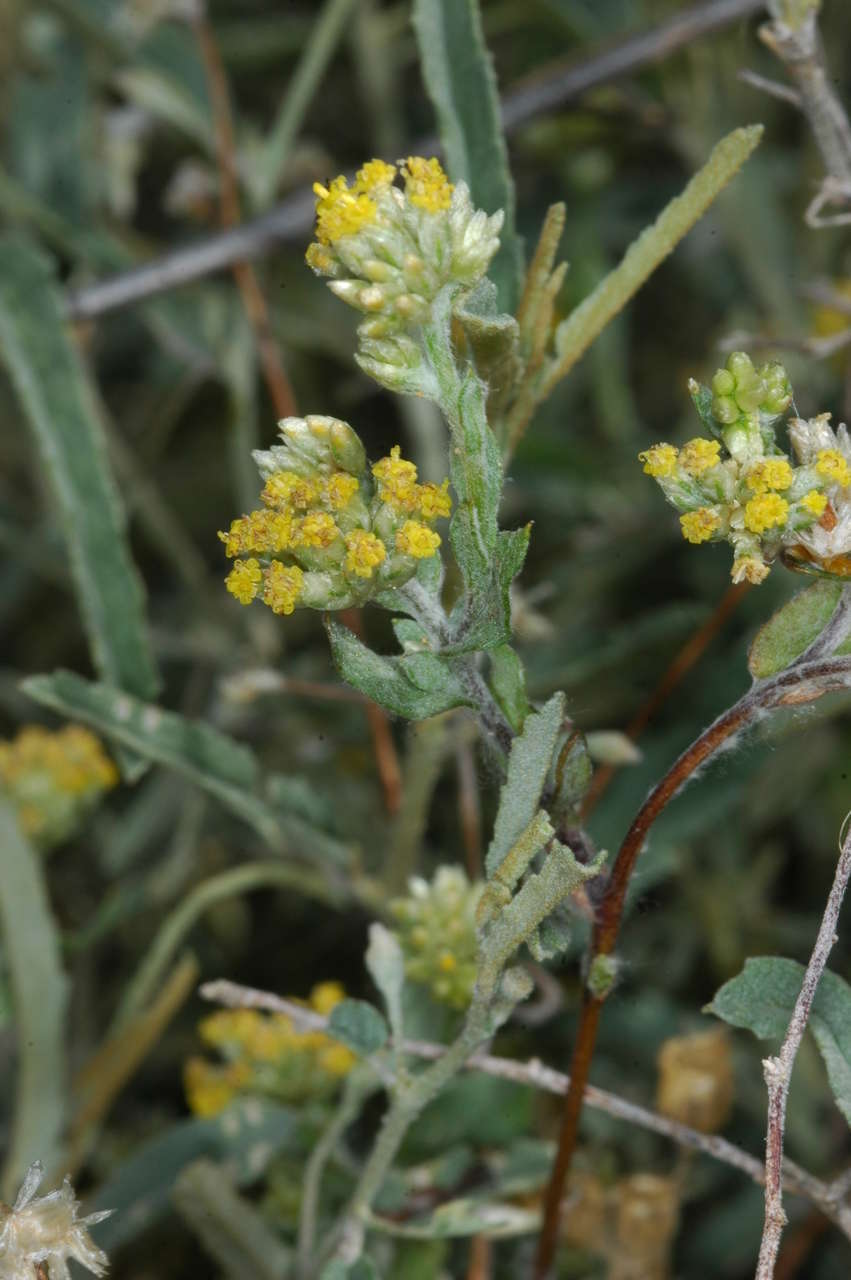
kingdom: Plantae
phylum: Tracheophyta
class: Magnoliopsida
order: Asterales
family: Asteraceae
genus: Rhodanthe
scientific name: Rhodanthe moschata
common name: Musk sunray
